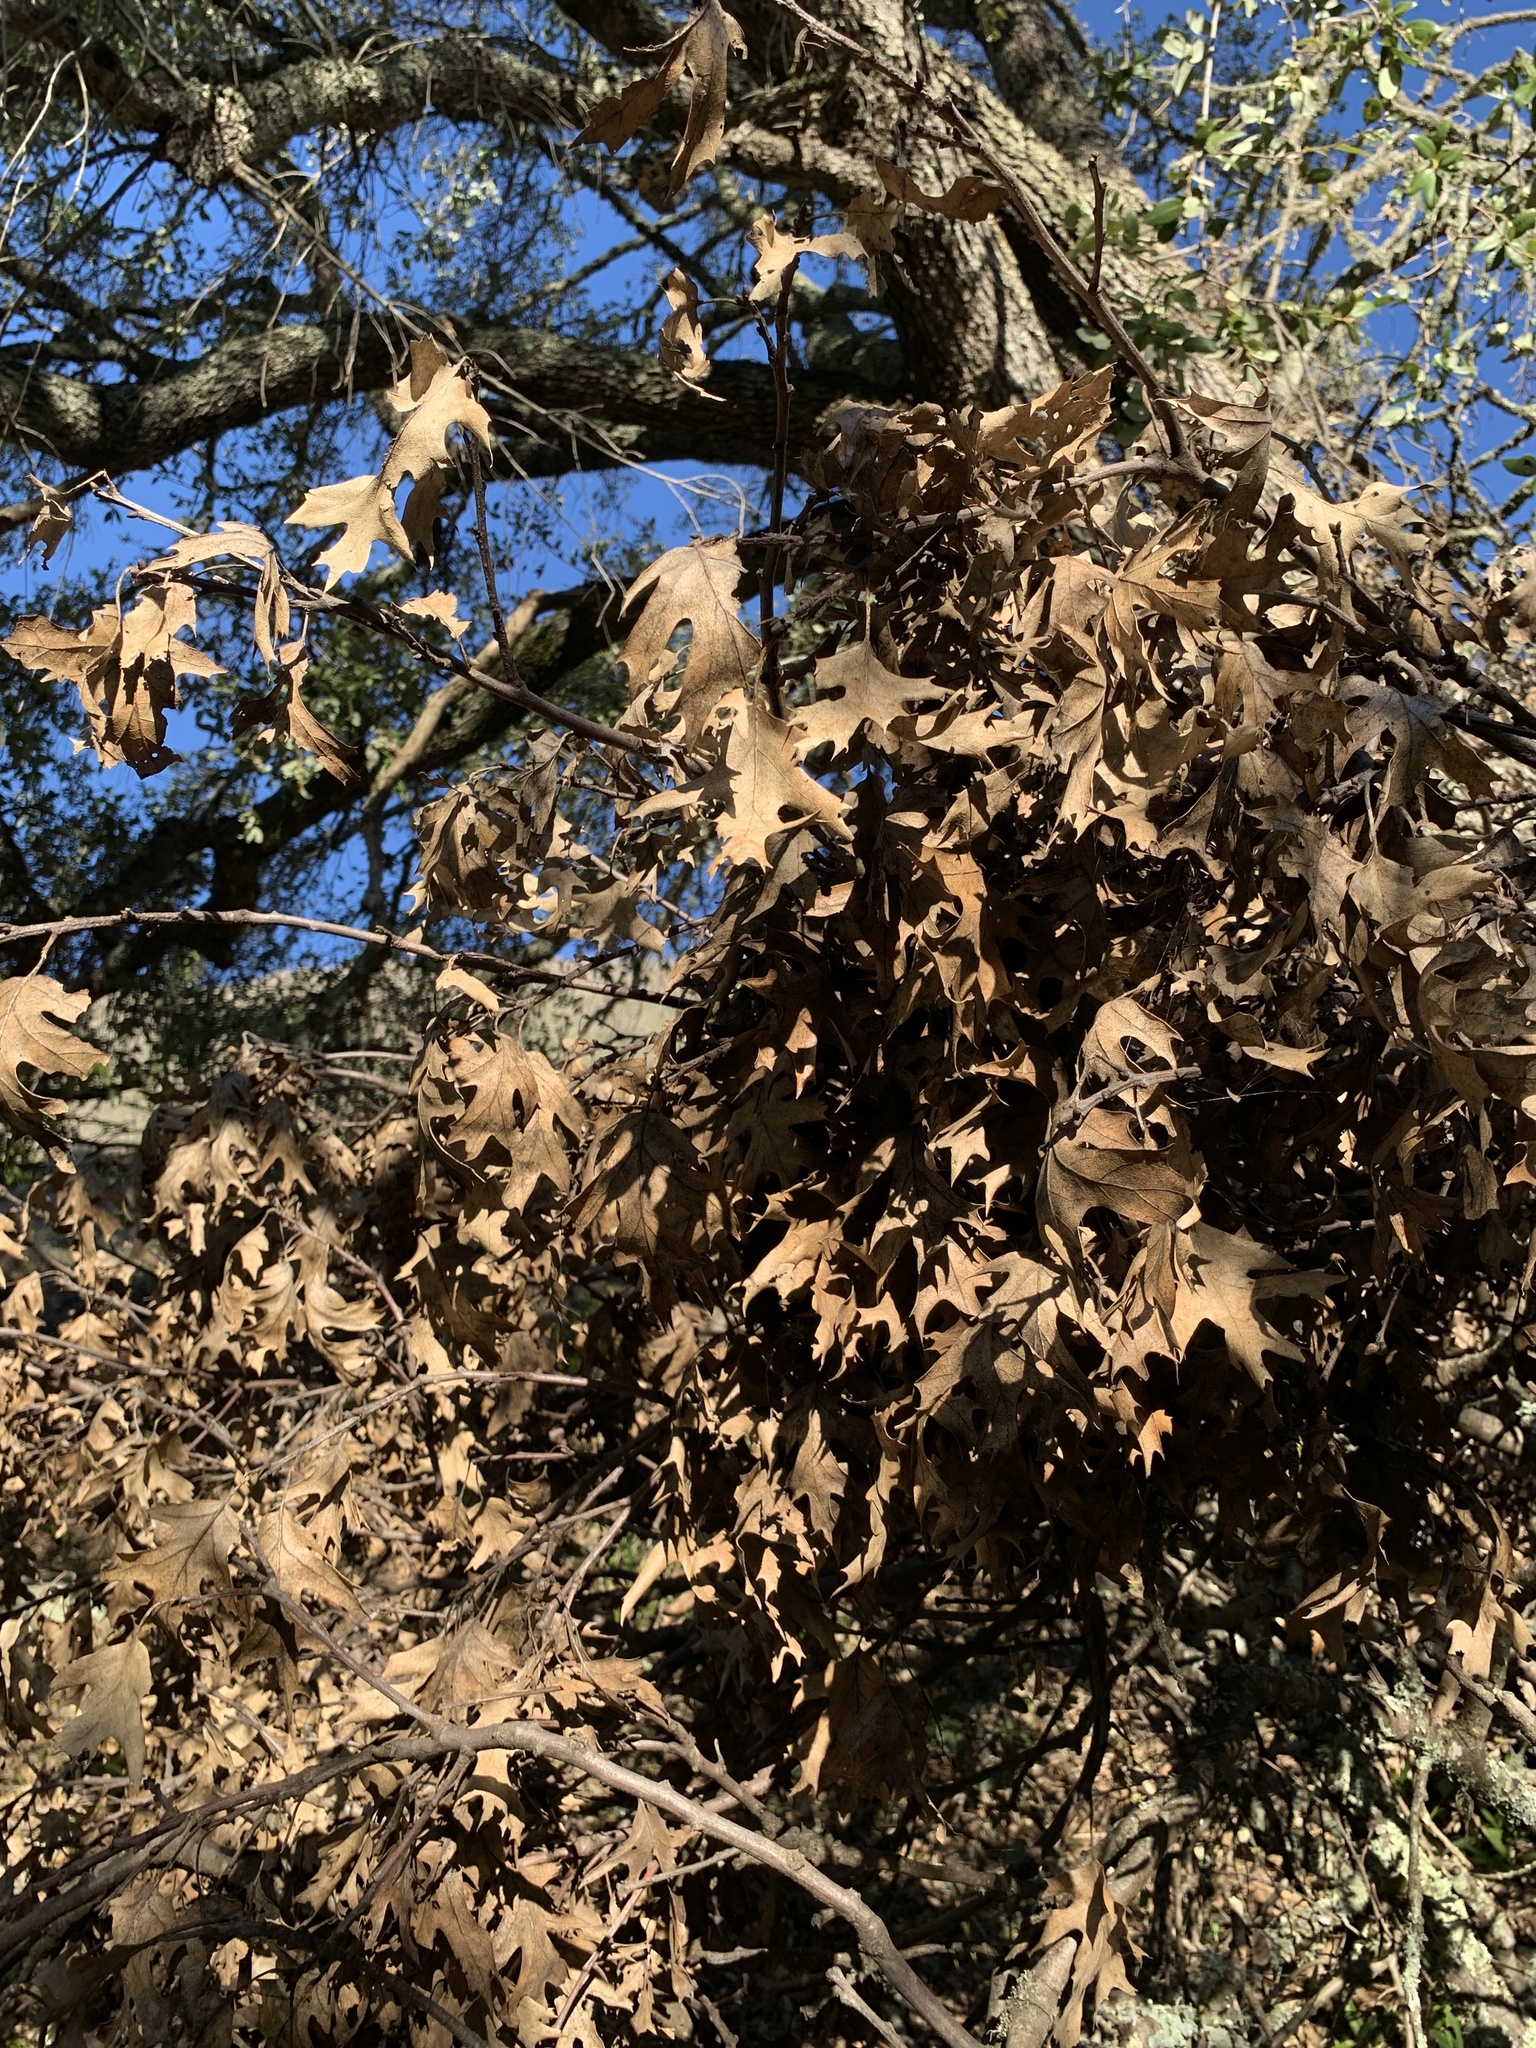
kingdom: Plantae
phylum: Tracheophyta
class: Magnoliopsida
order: Fagales
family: Fagaceae
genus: Quercus
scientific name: Quercus kelloggii
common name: California black oak
